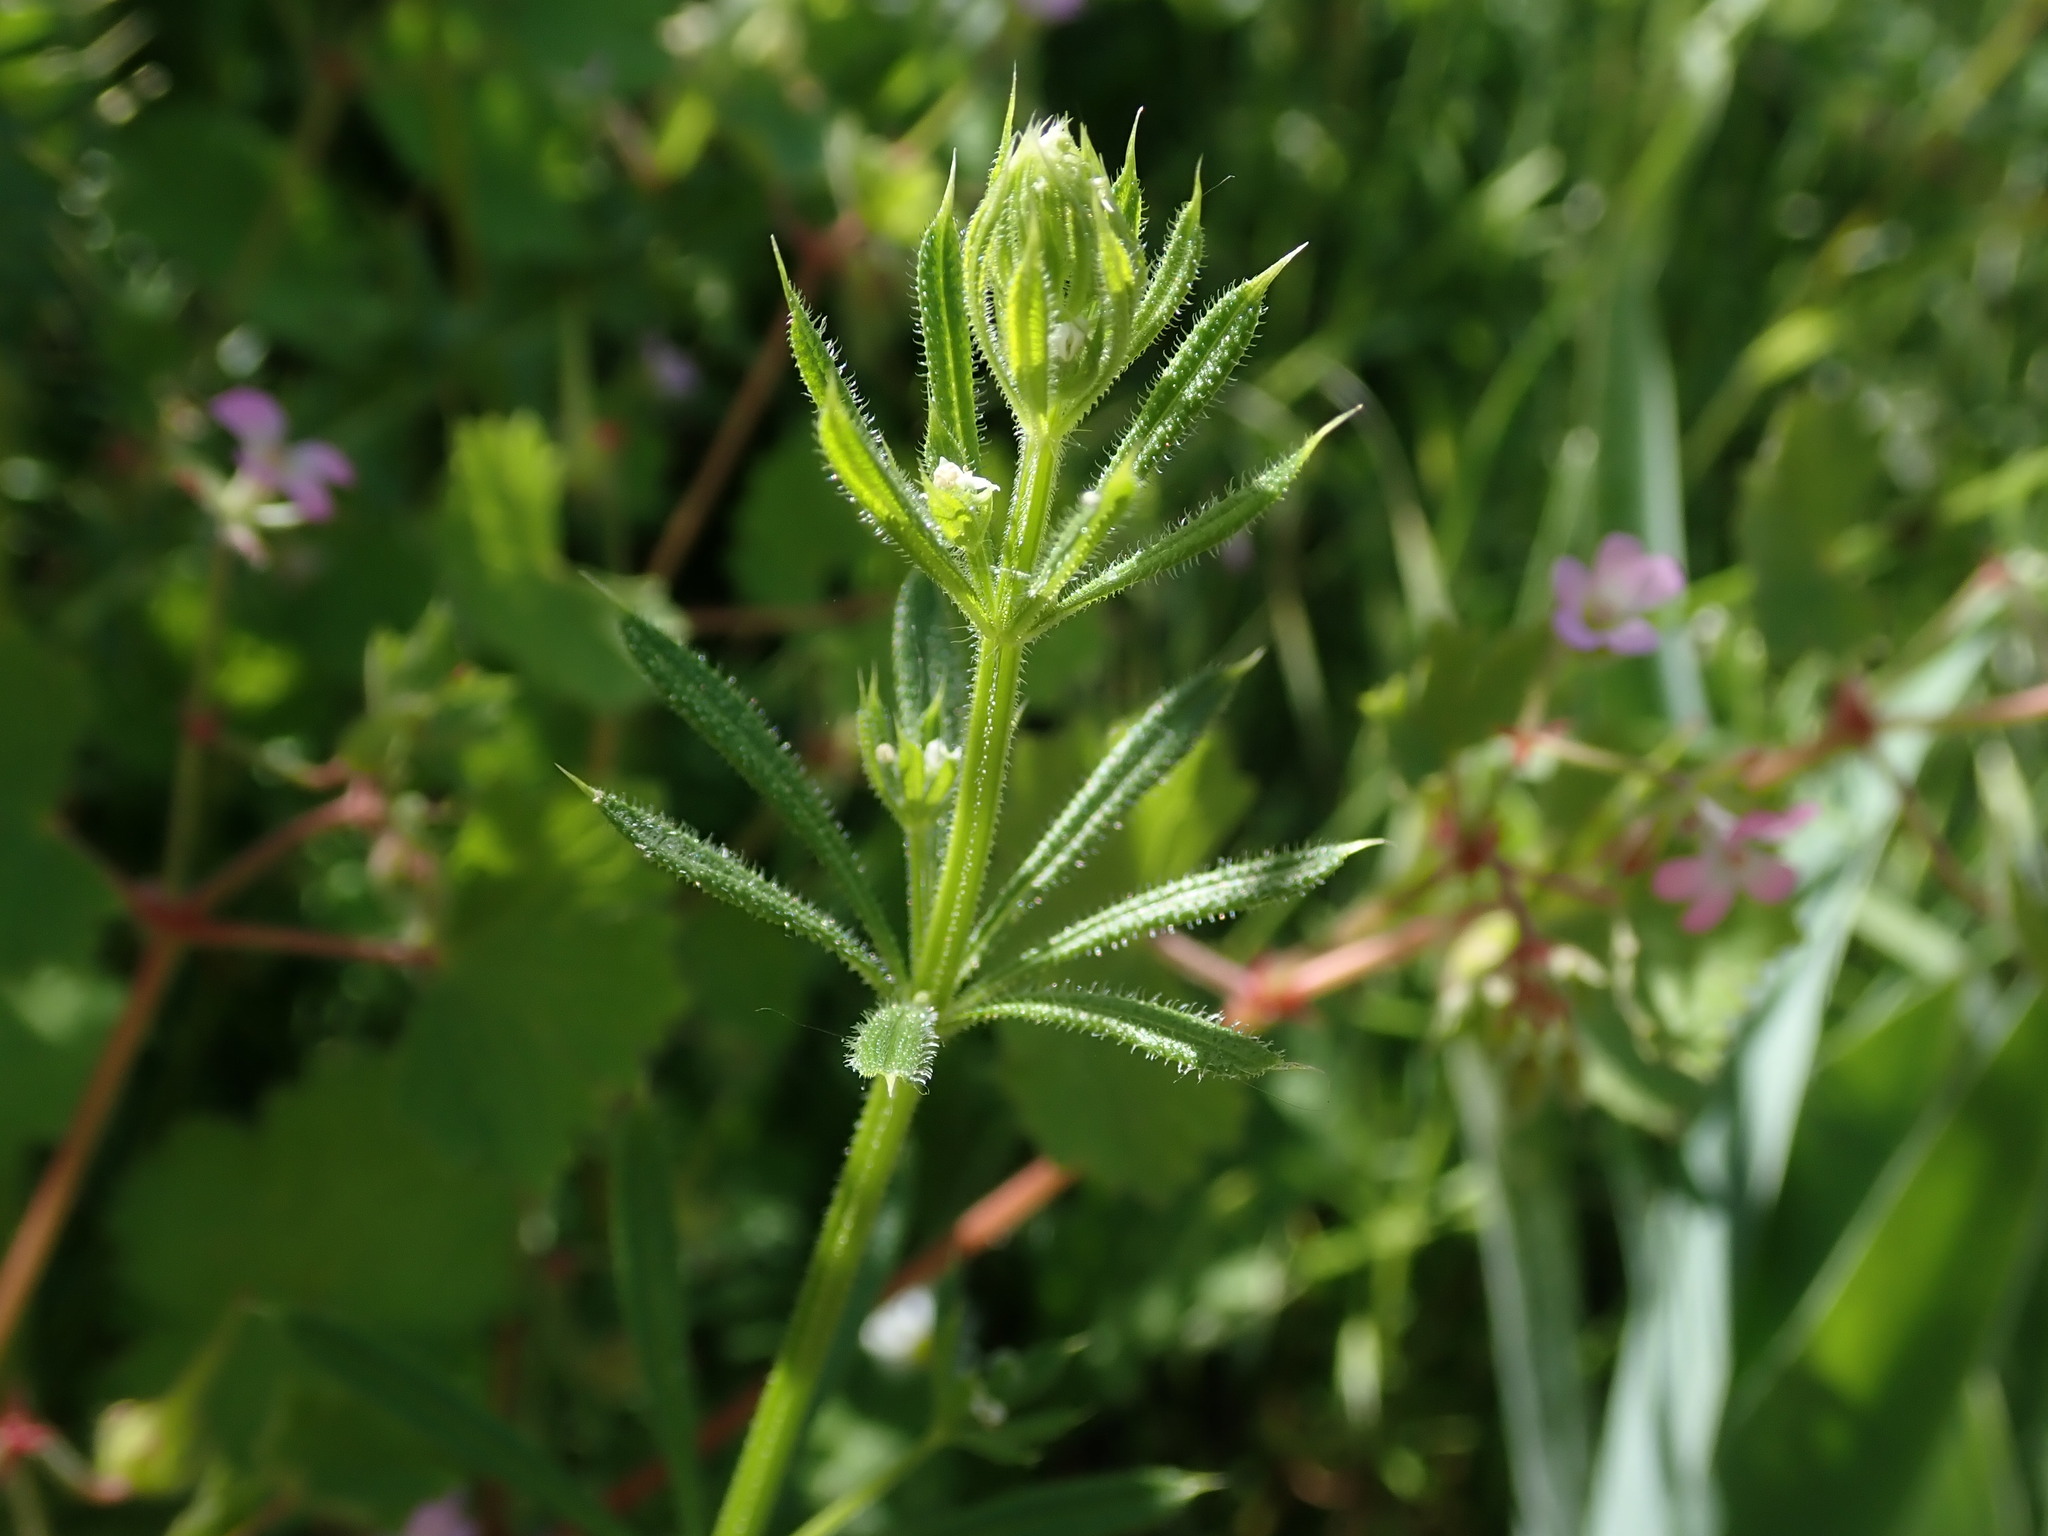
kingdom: Plantae
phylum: Tracheophyta
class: Magnoliopsida
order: Gentianales
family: Rubiaceae
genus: Galium
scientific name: Galium aparine
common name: Cleavers
